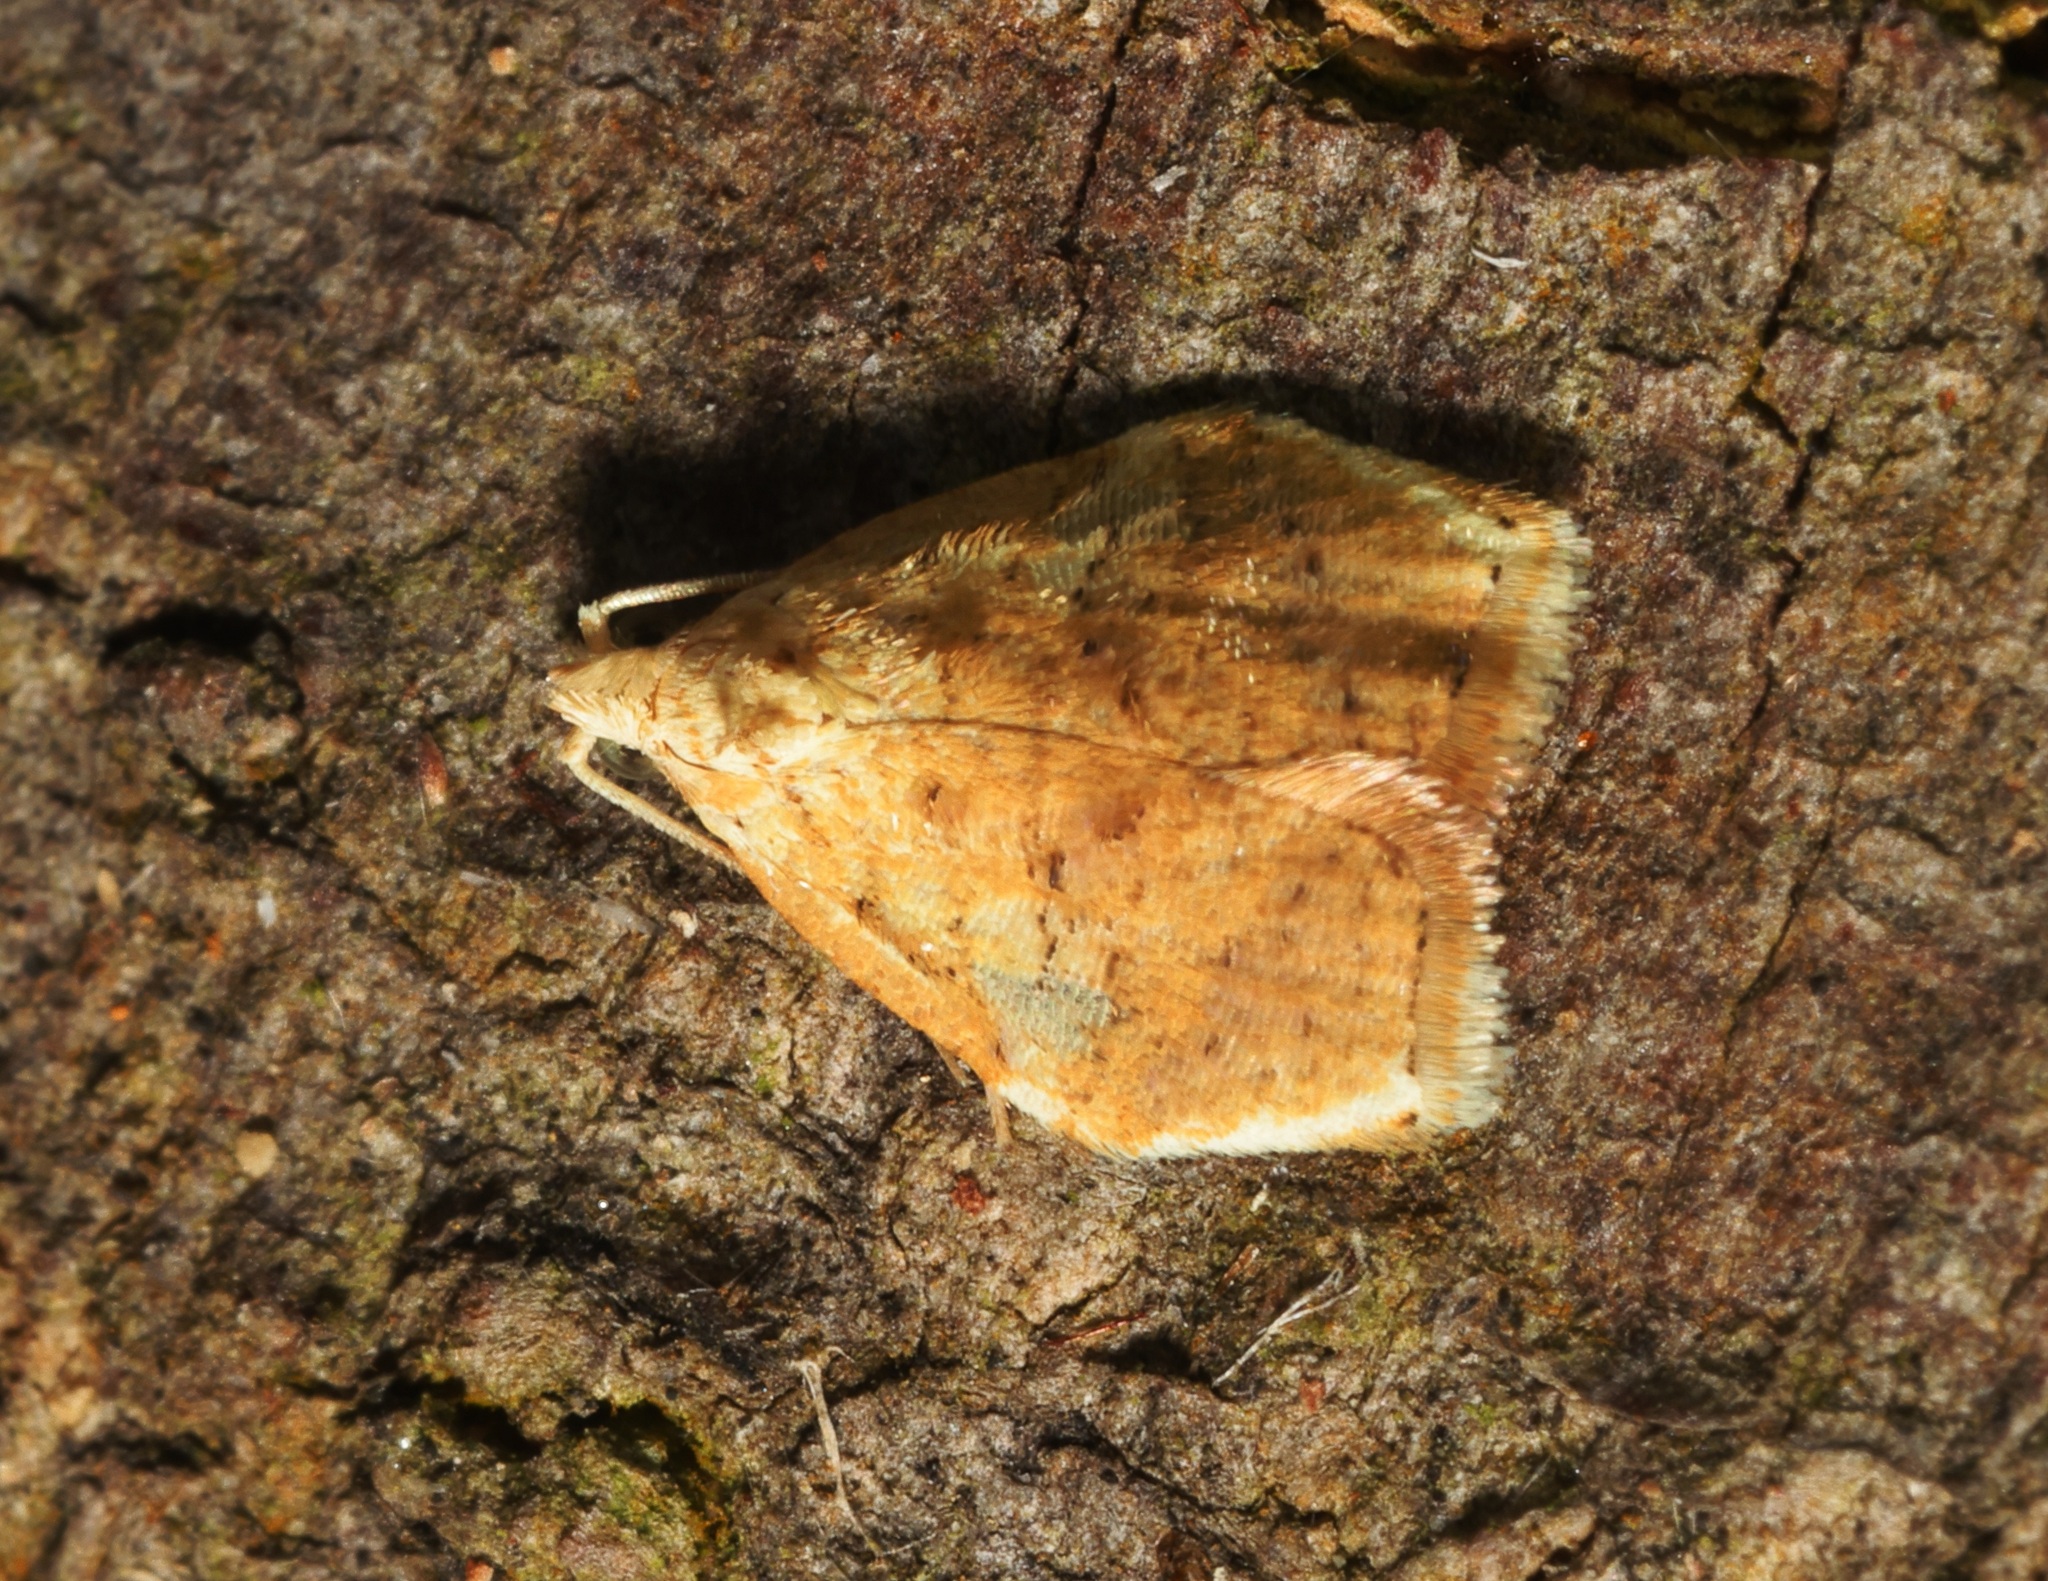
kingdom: Animalia
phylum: Arthropoda
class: Insecta
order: Lepidoptera
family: Tortricidae
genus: Tymbarcha
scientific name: Tymbarcha cerinopa
